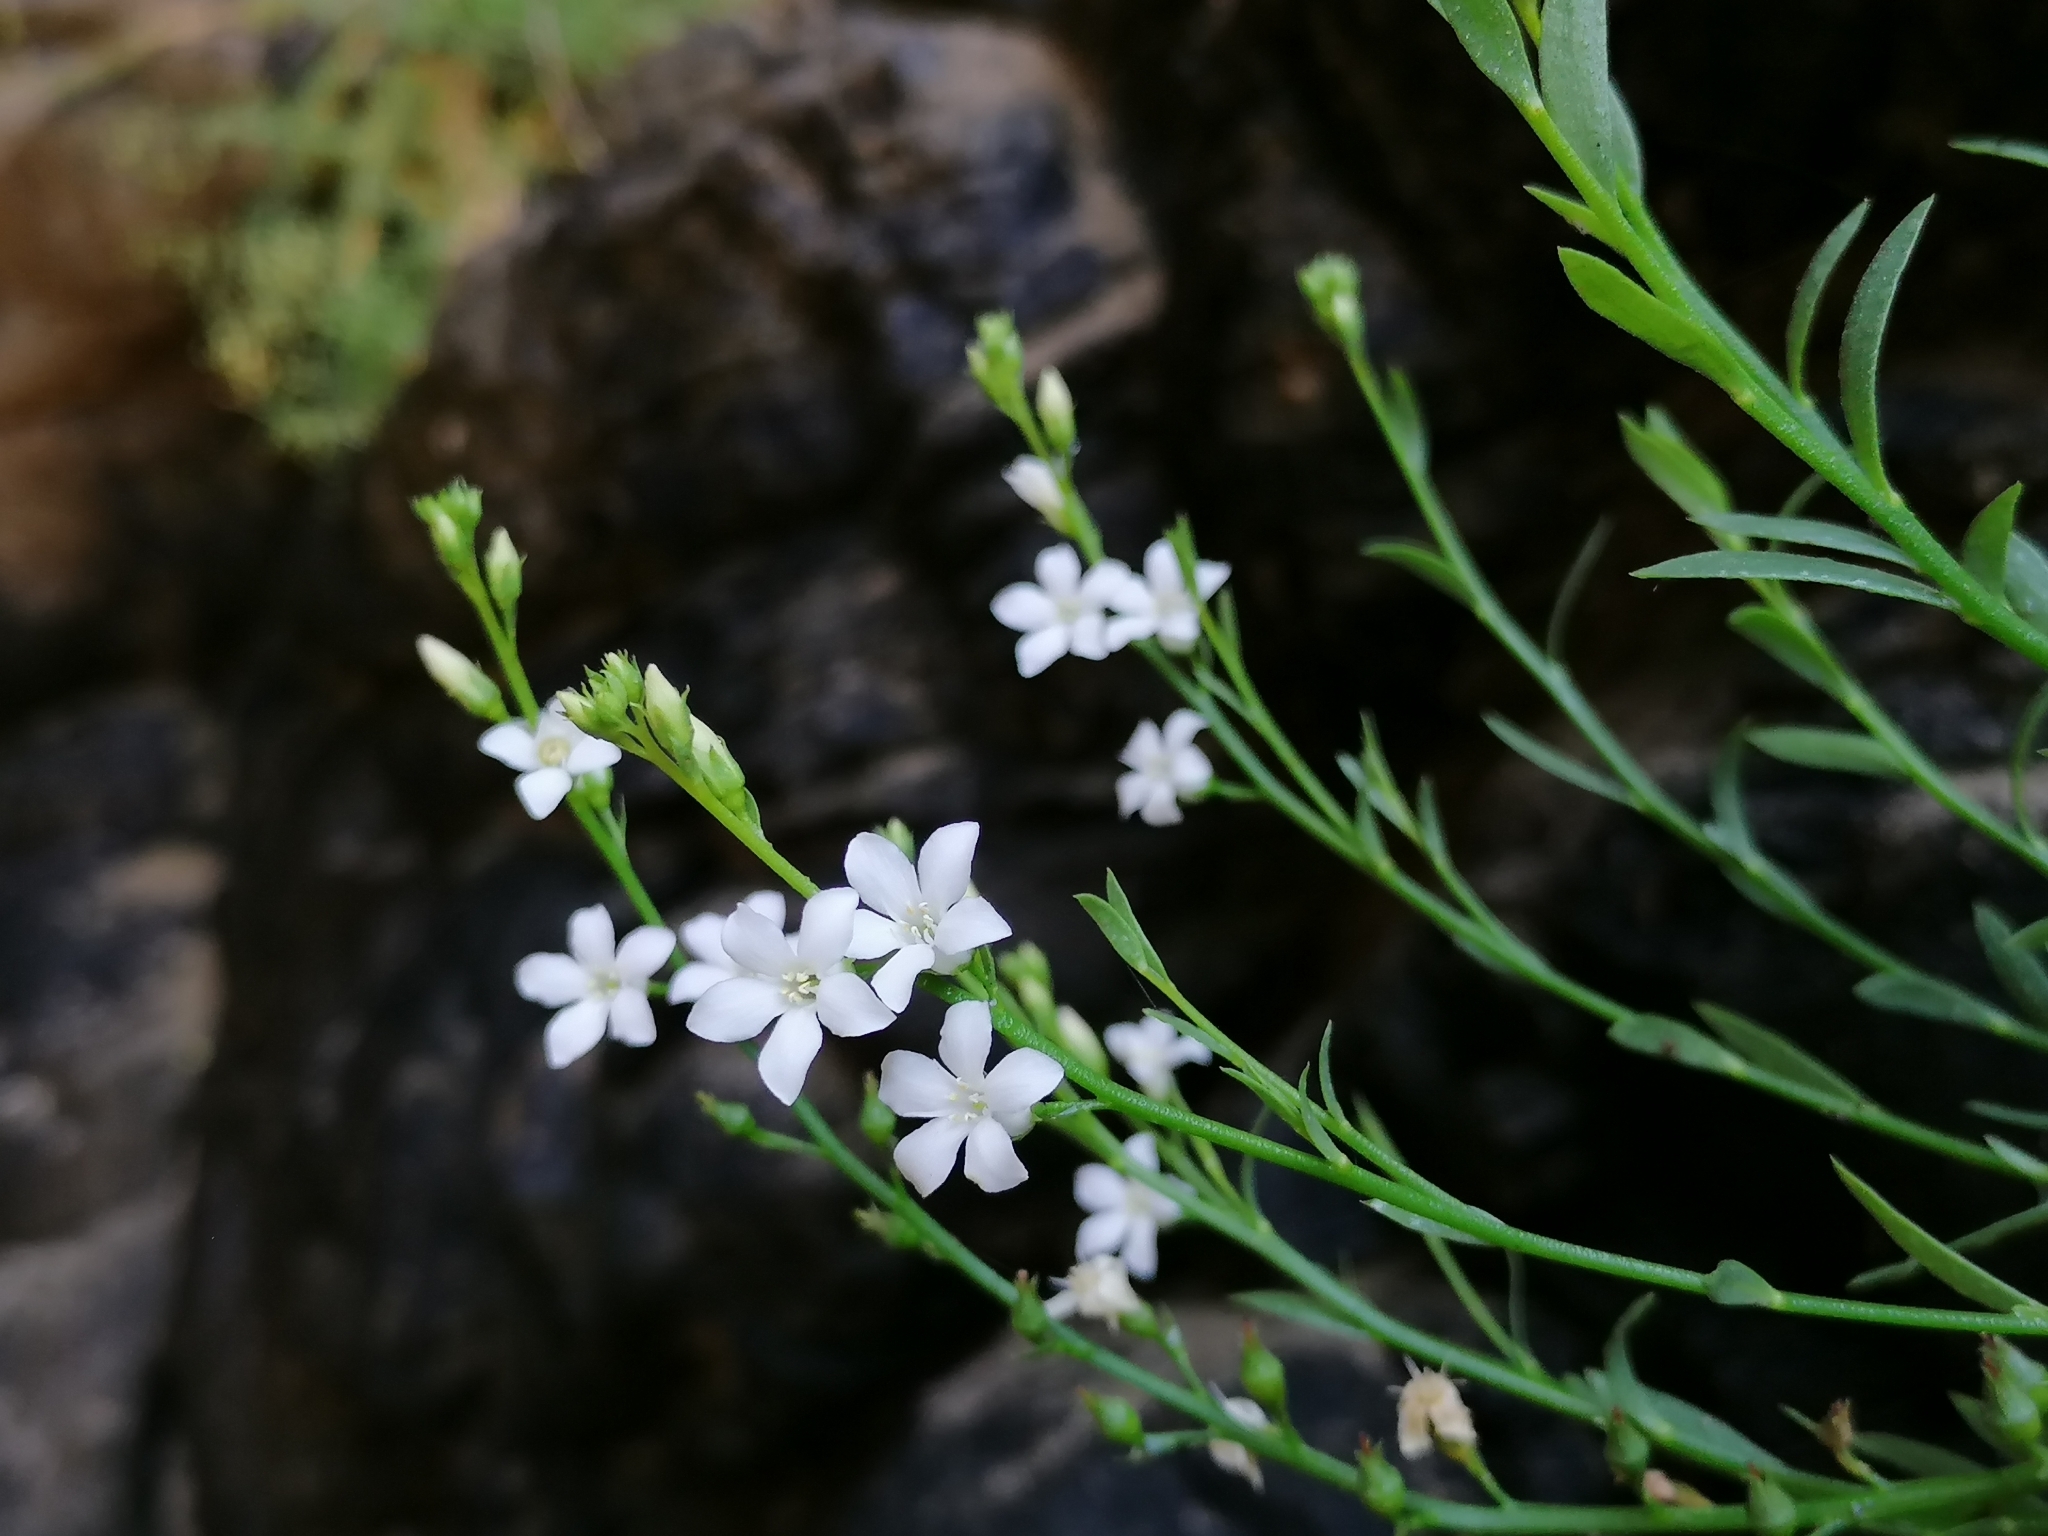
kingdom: Plantae
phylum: Tracheophyta
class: Magnoliopsida
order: Ericales
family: Primulaceae
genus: Samolus
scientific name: Samolus porosus
